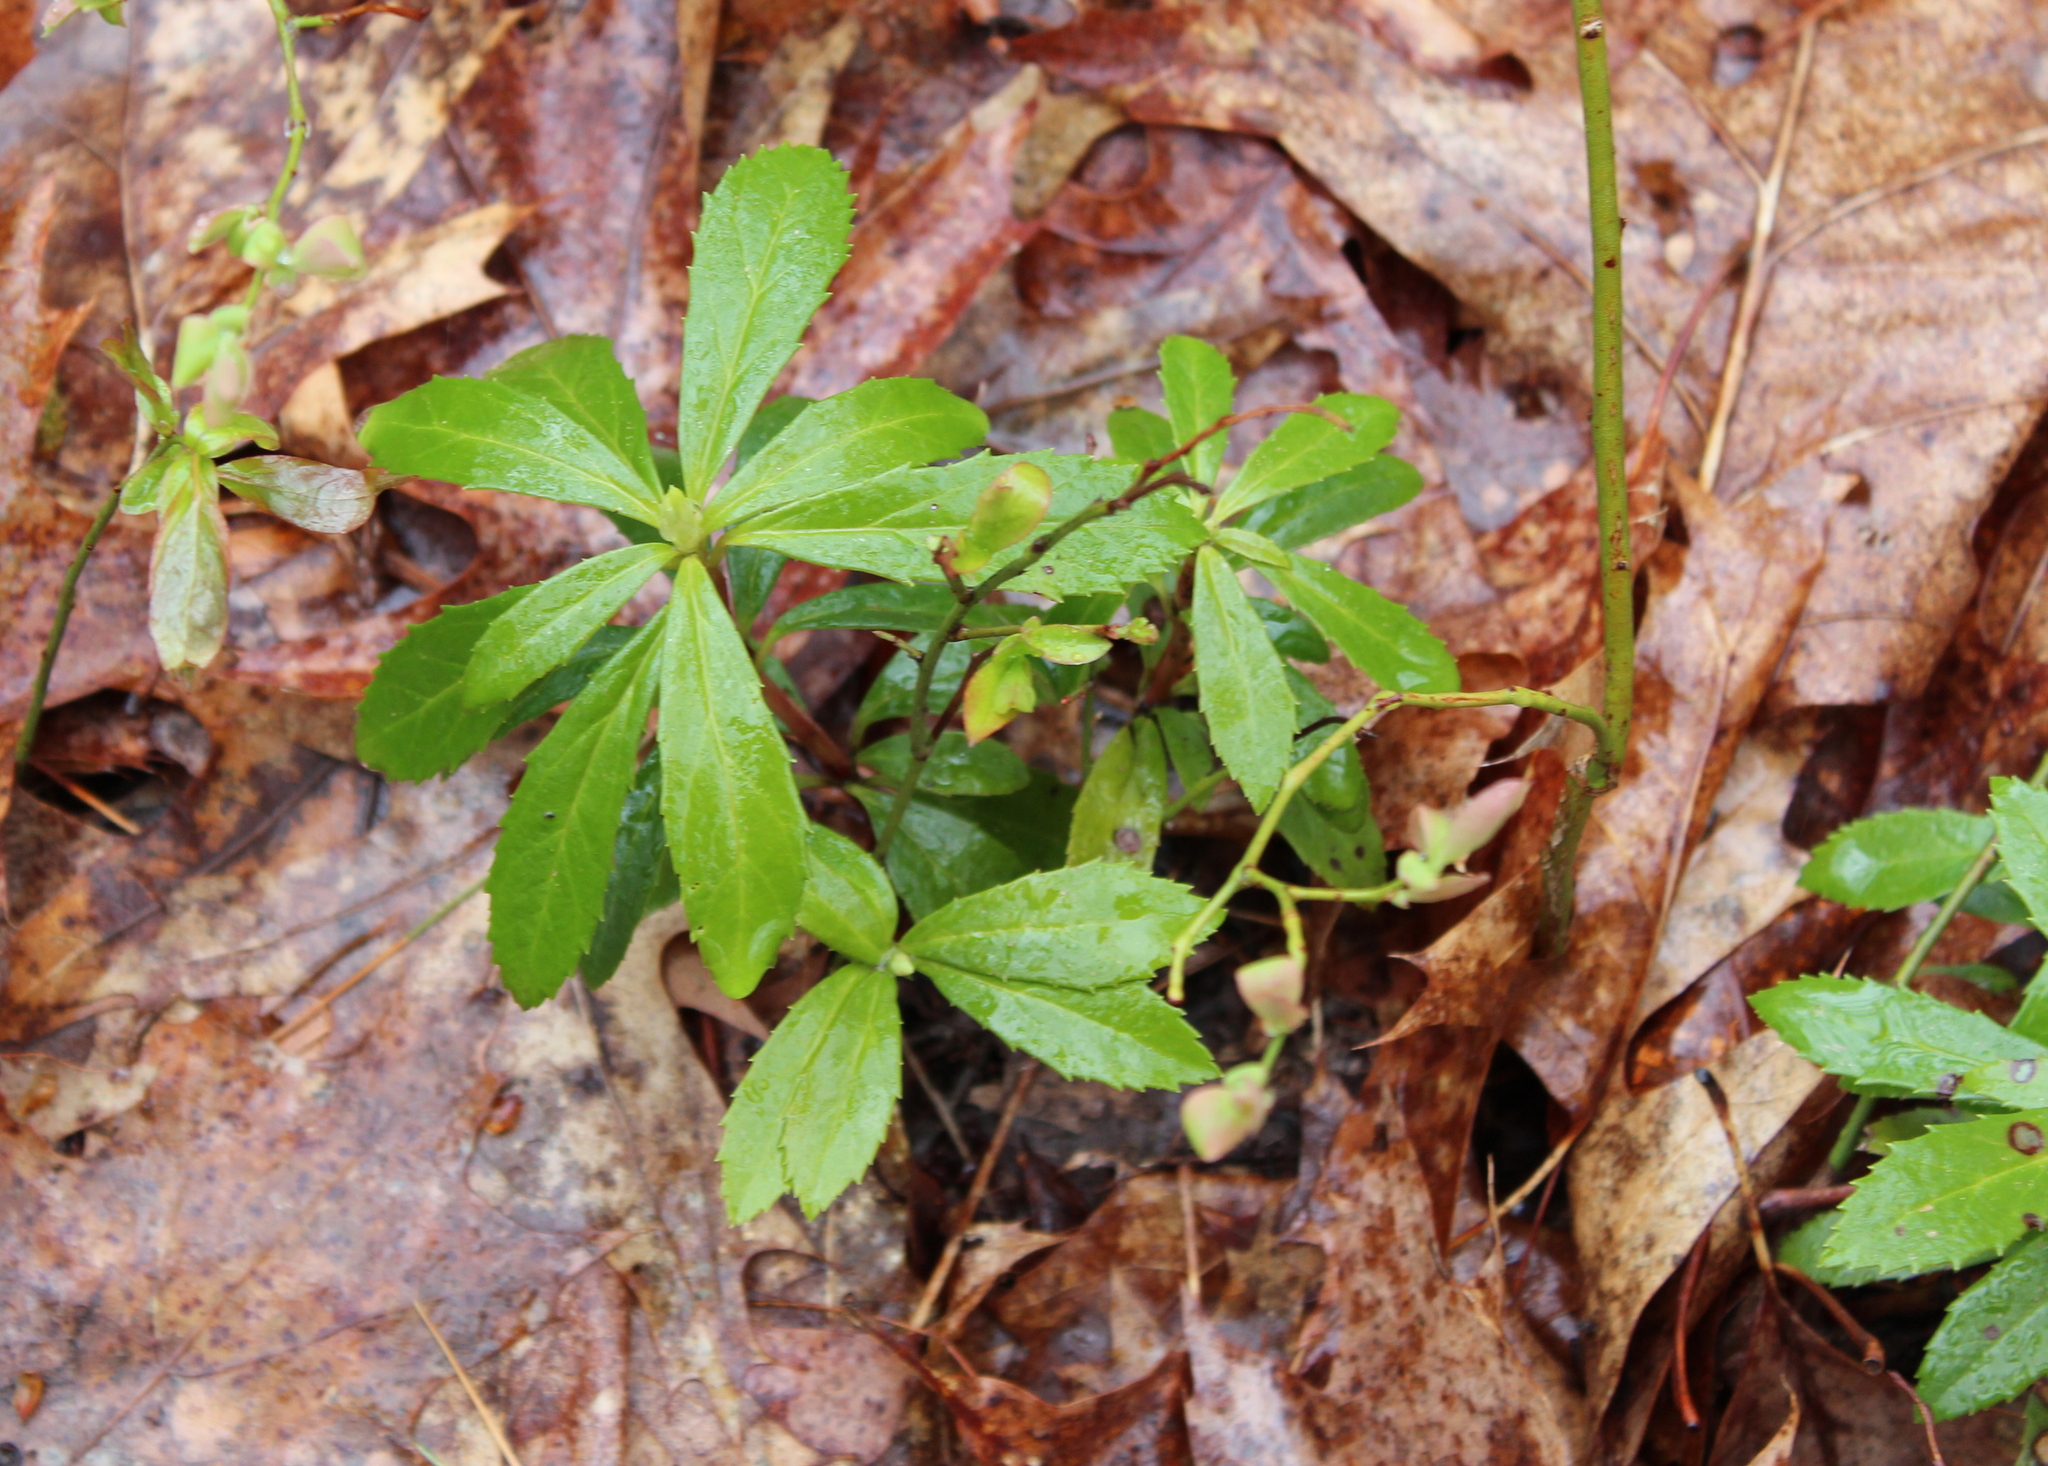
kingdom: Plantae
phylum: Tracheophyta
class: Magnoliopsida
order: Ericales
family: Ericaceae
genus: Chimaphila
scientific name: Chimaphila umbellata
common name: Pipsissewa
